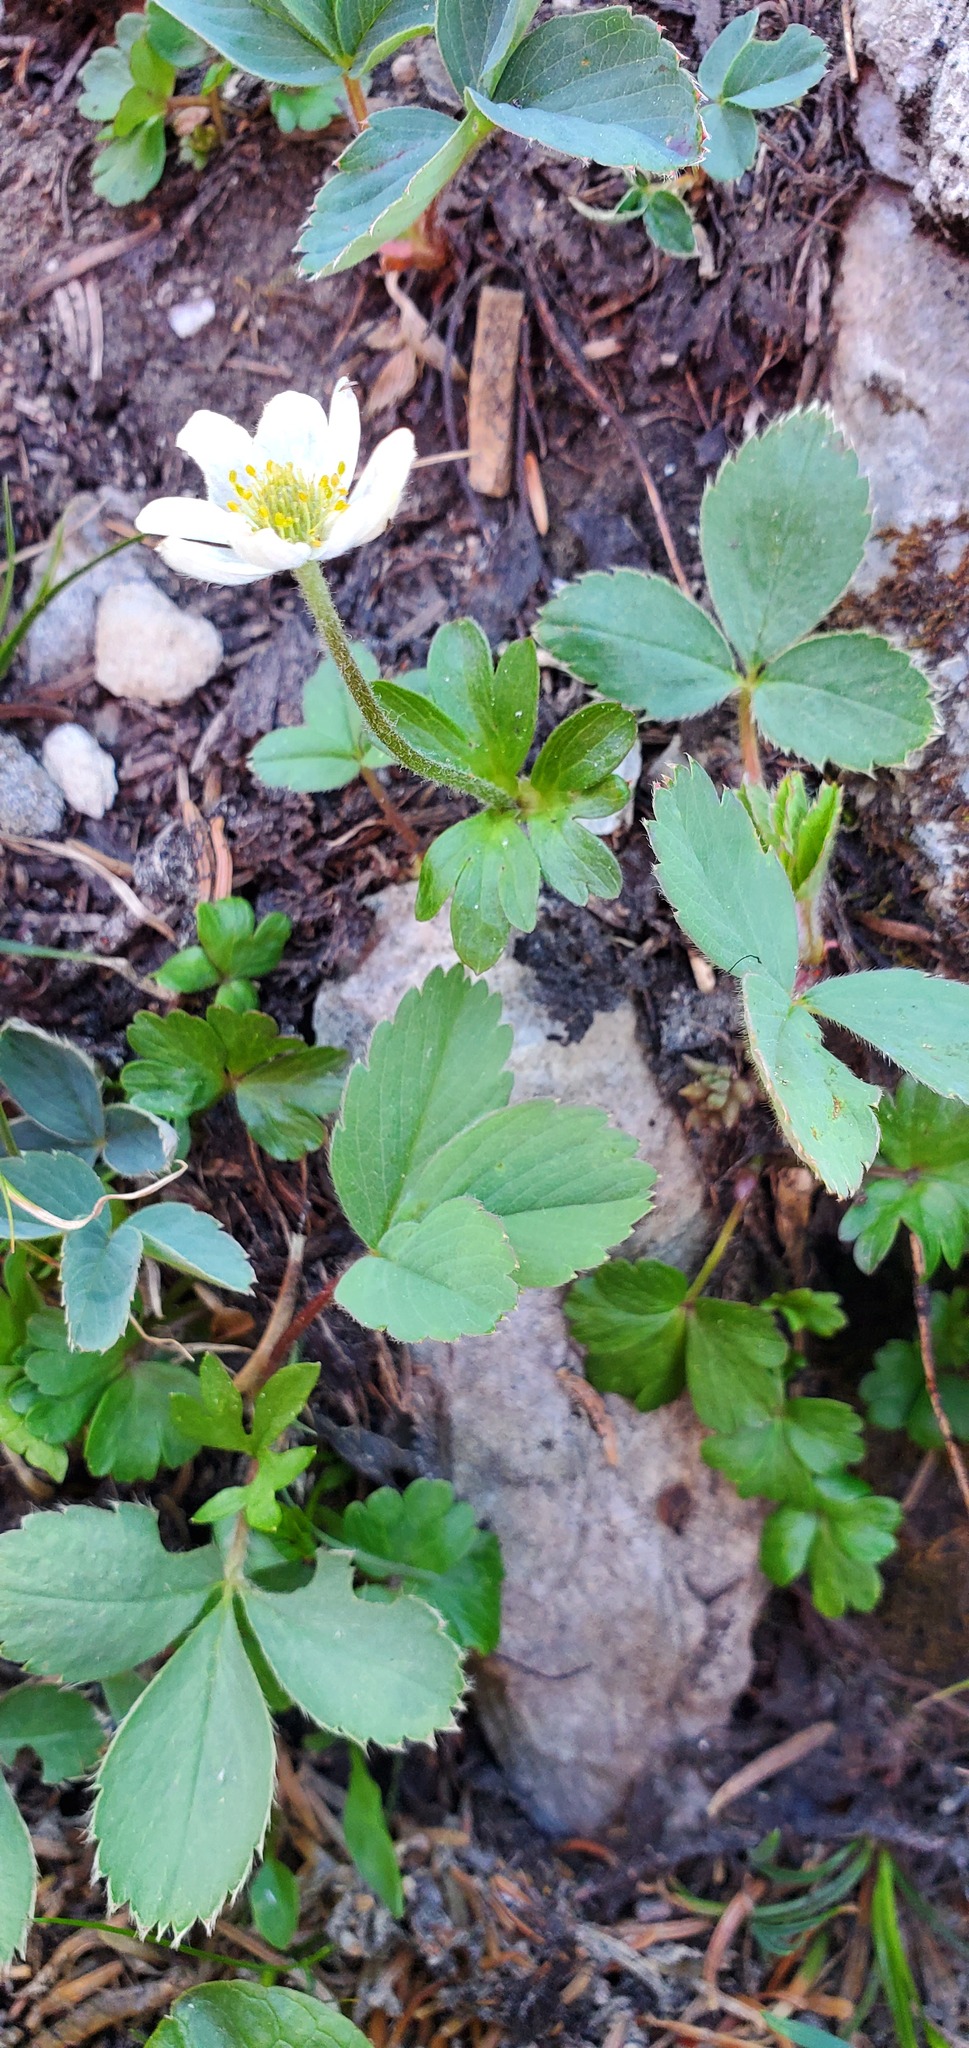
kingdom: Plantae
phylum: Tracheophyta
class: Magnoliopsida
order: Rosales
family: Rosaceae
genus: Fragaria
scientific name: Fragaria virginiana
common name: Thickleaved wild strawberry
